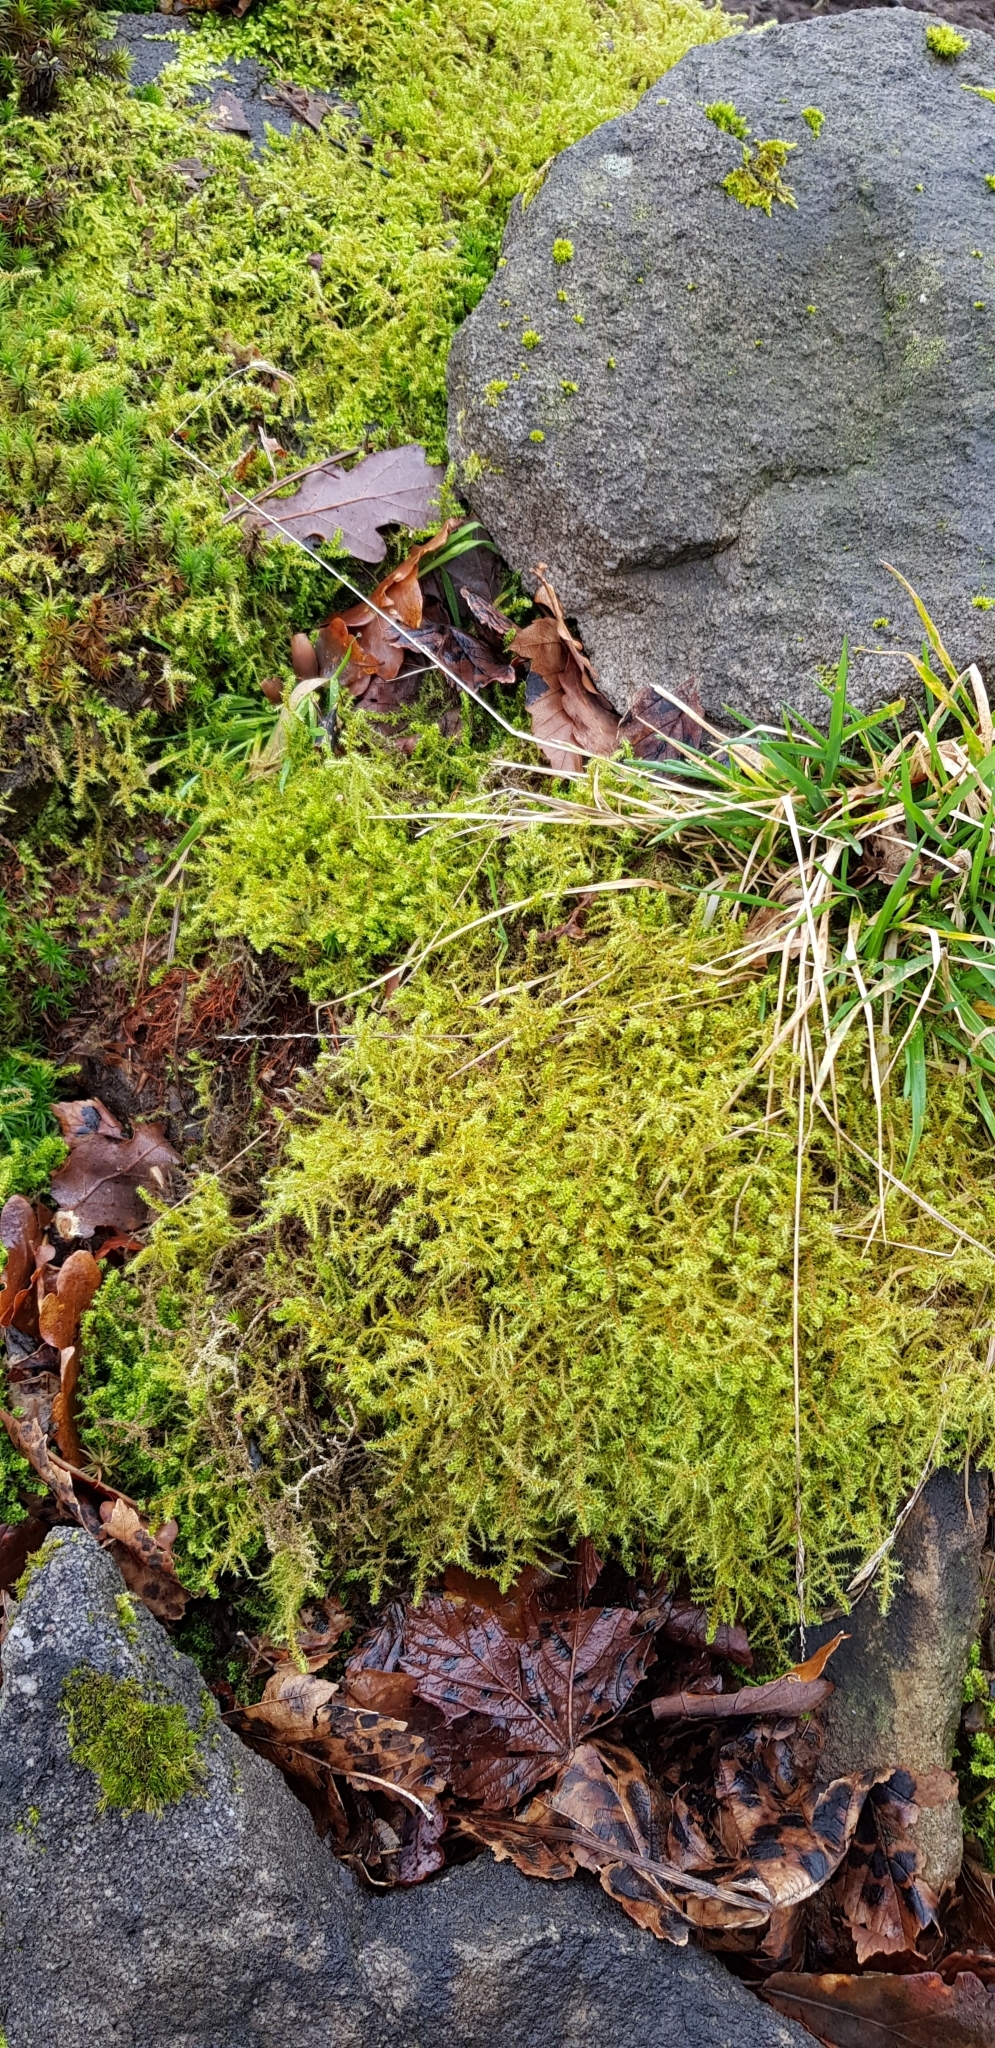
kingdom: Plantae
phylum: Bryophyta
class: Bryopsida
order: Hypnales
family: Hylocomiaceae
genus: Rhytidiadelphus
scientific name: Rhytidiadelphus squarrosus
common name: Springy turf-moss
